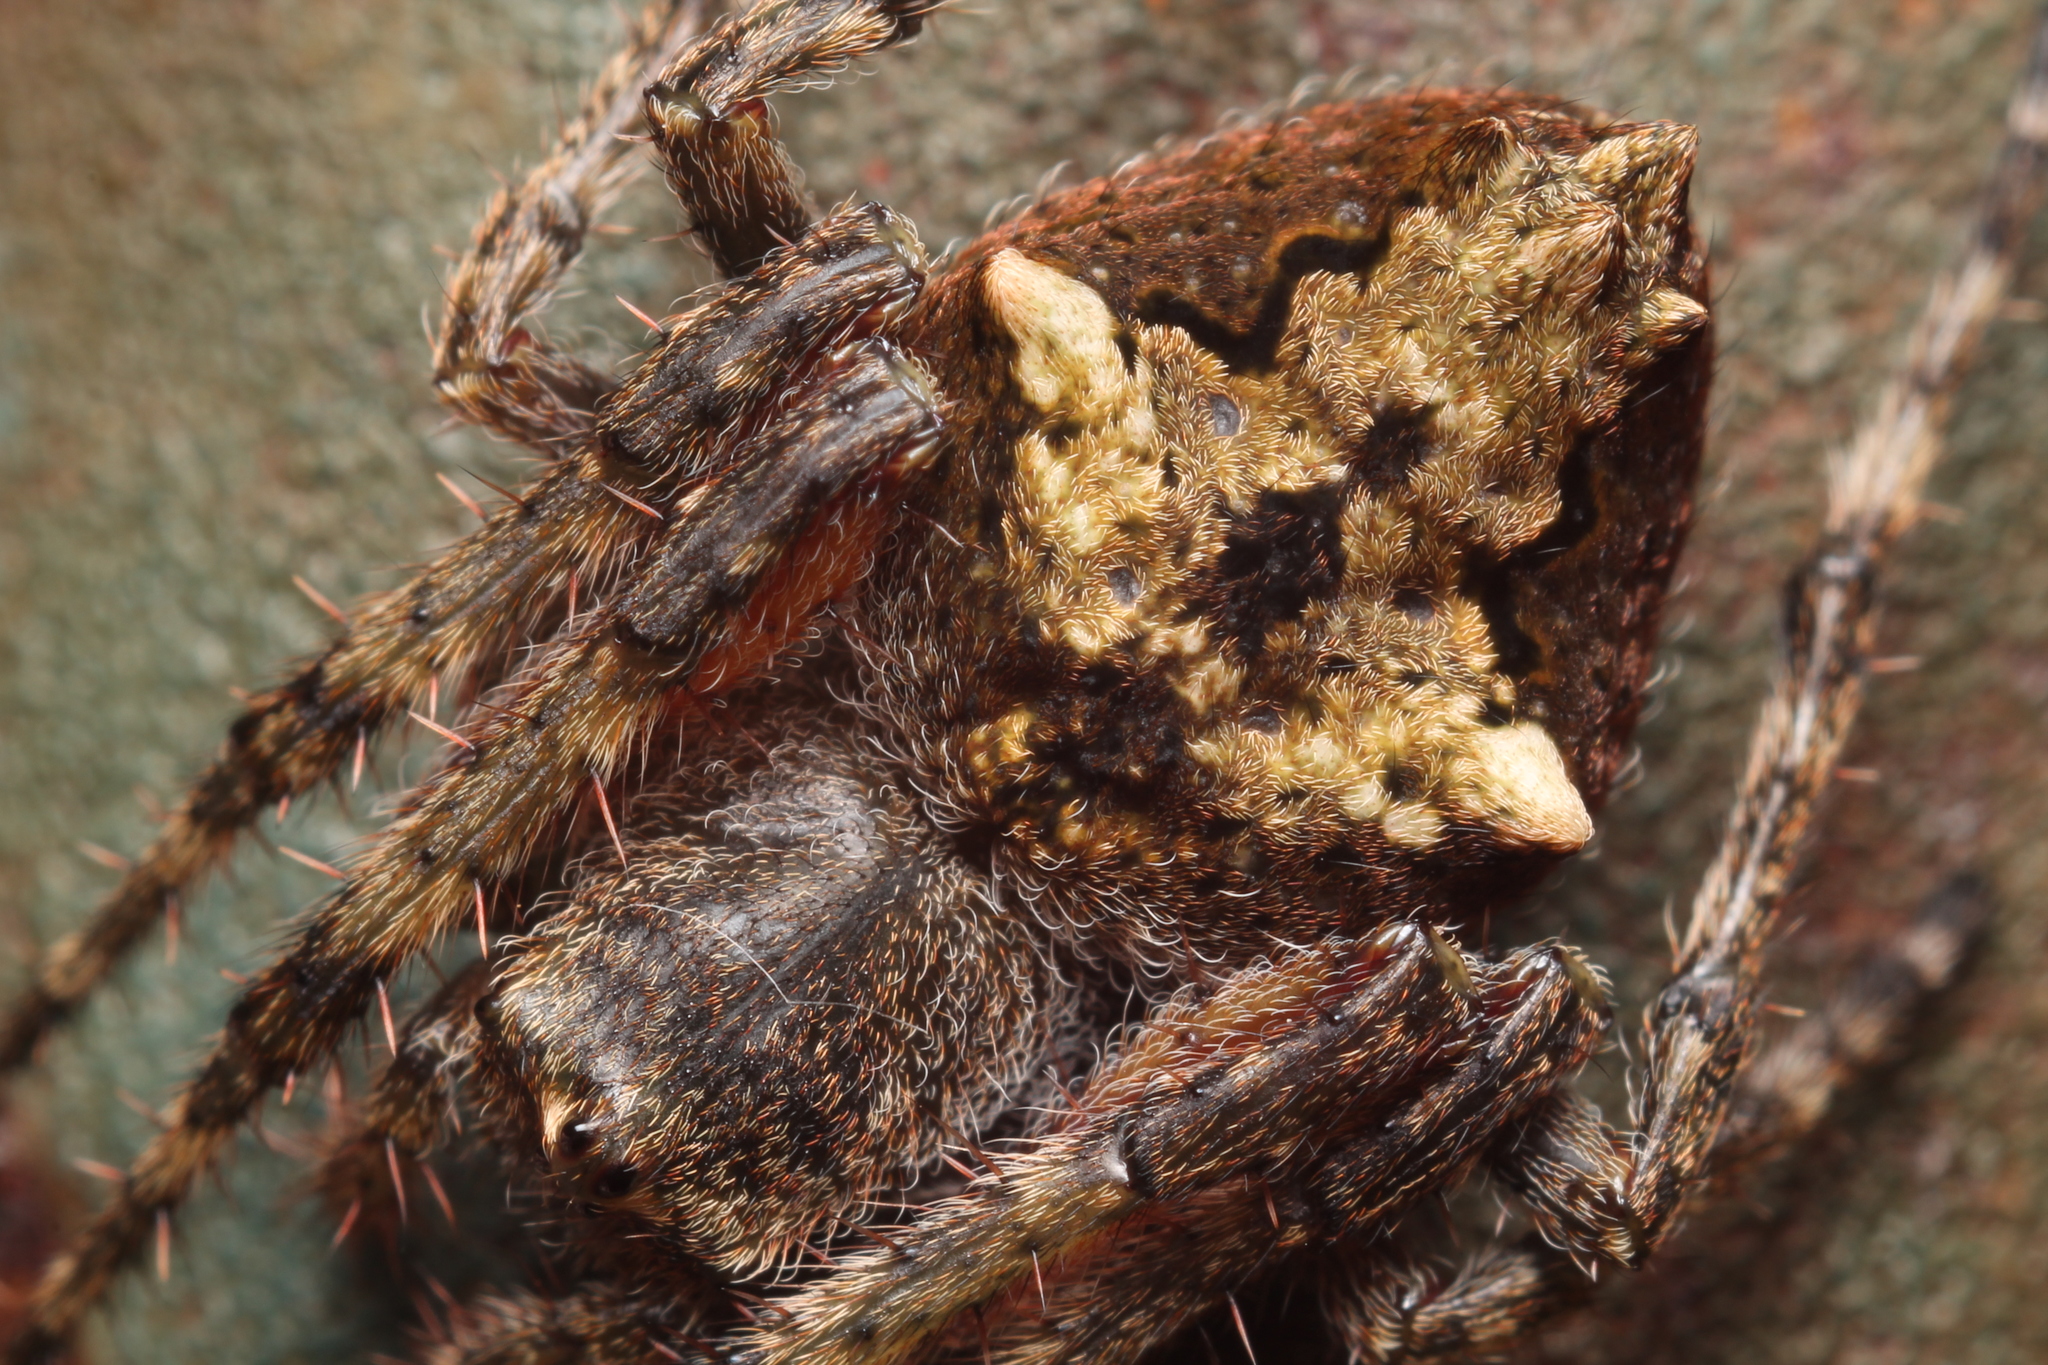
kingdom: Animalia
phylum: Arthropoda
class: Arachnida
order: Araneae
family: Araneidae
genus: Eriophora
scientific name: Eriophora pustulosa
